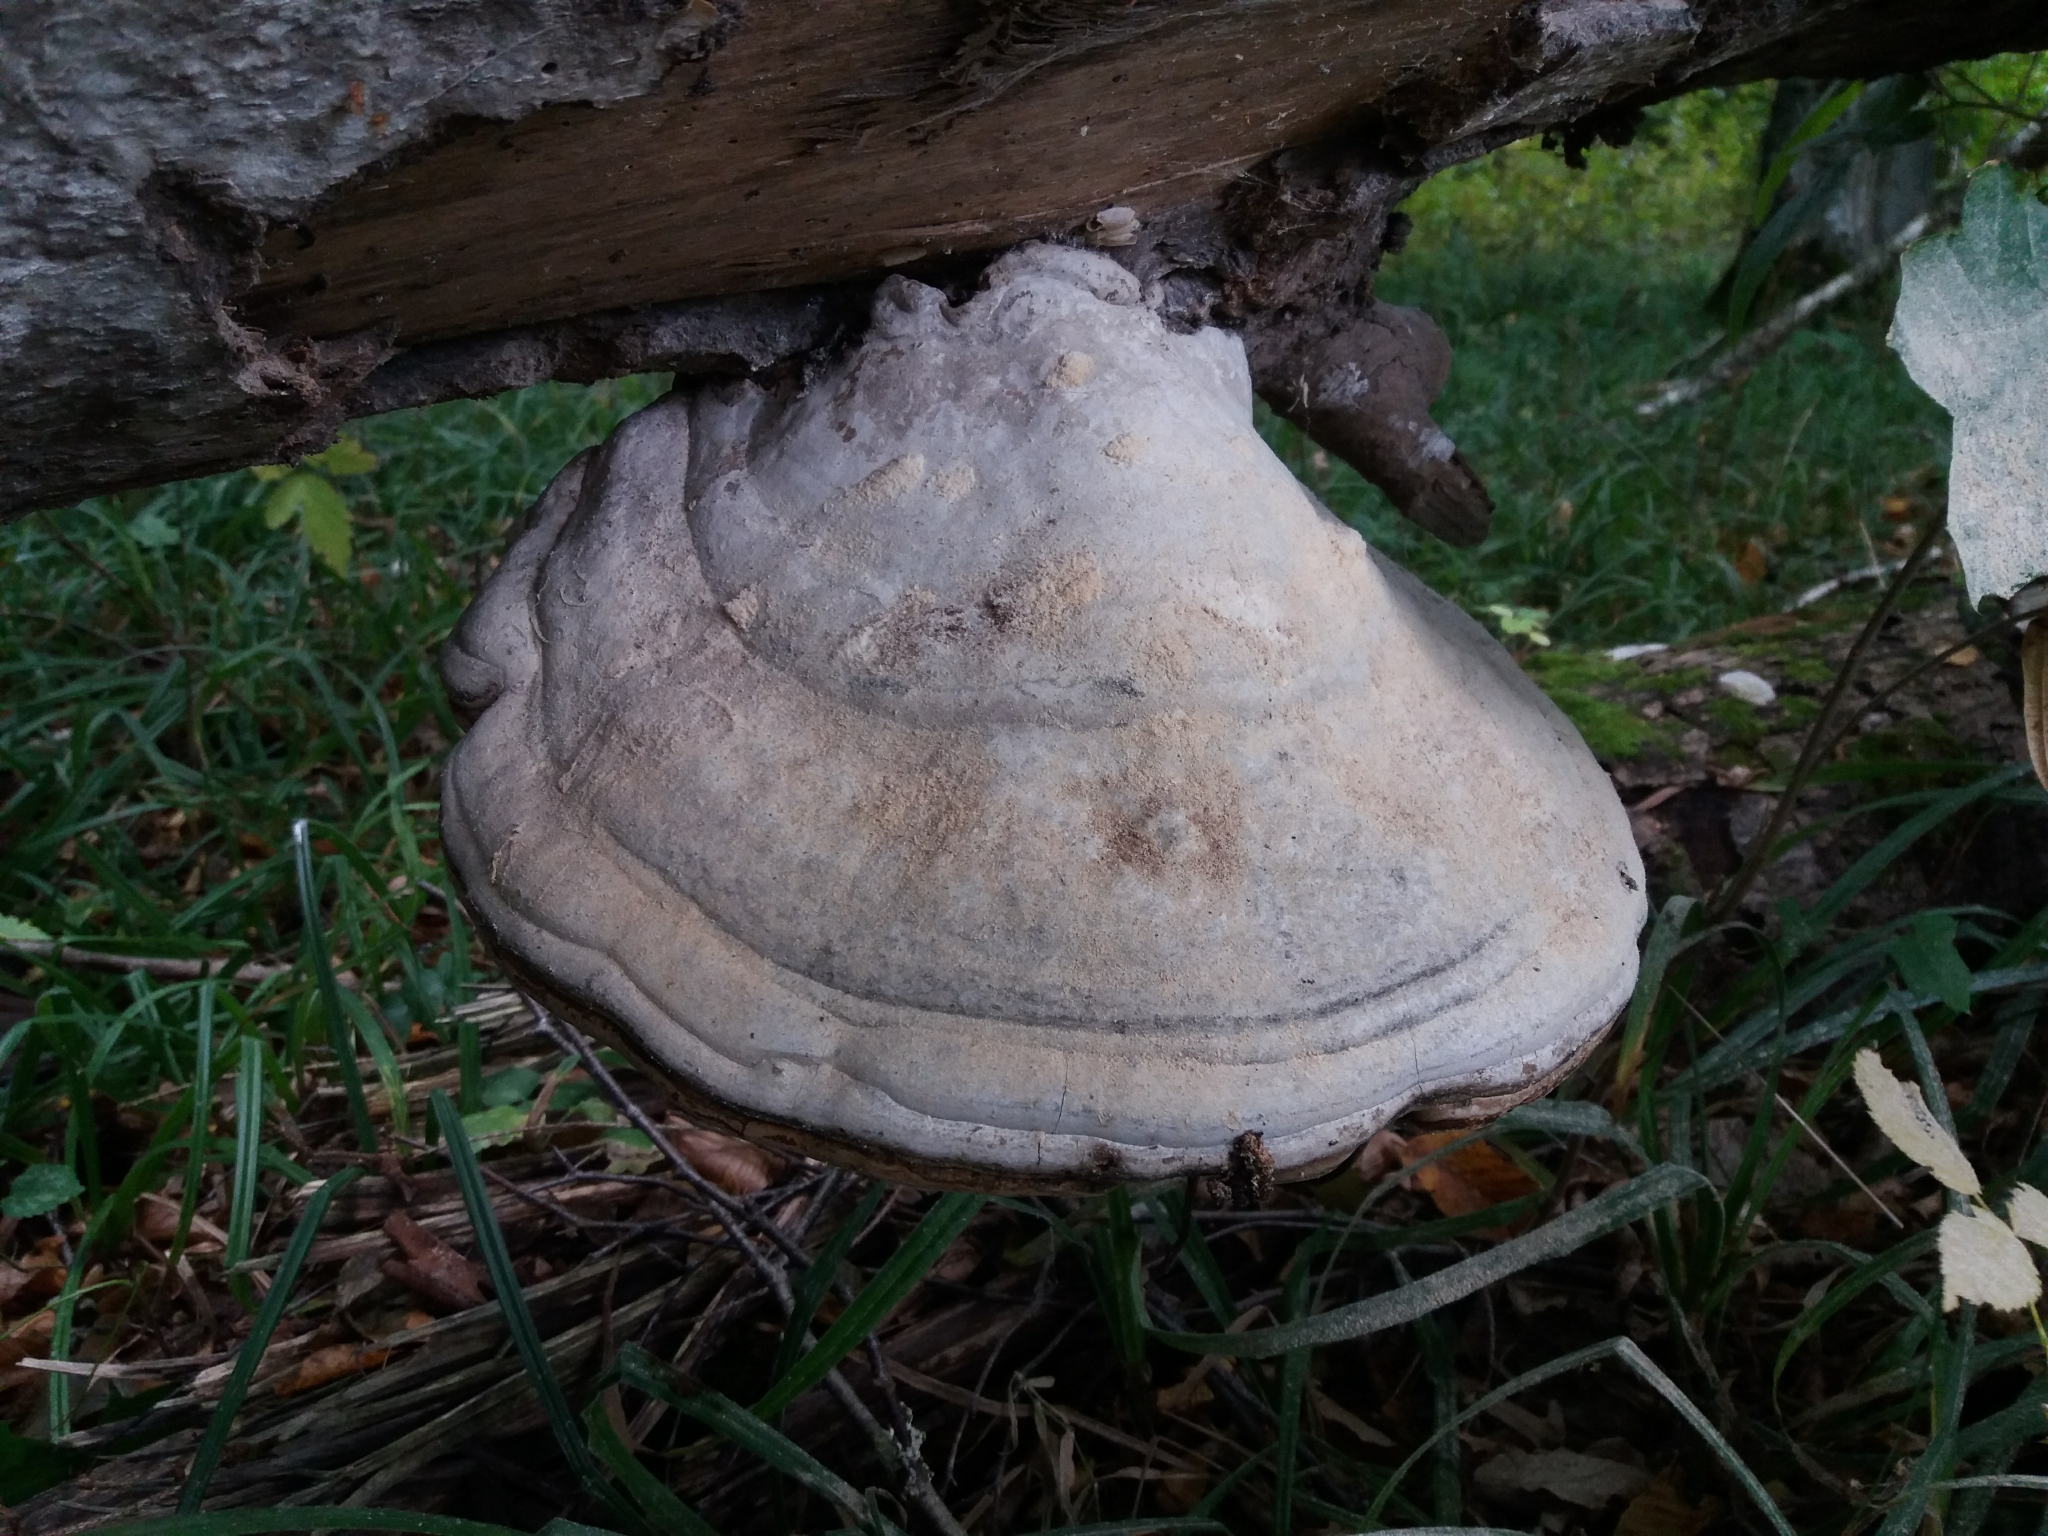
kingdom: Fungi
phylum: Basidiomycota
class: Agaricomycetes
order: Polyporales
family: Polyporaceae
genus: Fomes
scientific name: Fomes fomentarius
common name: Hoof fungus
